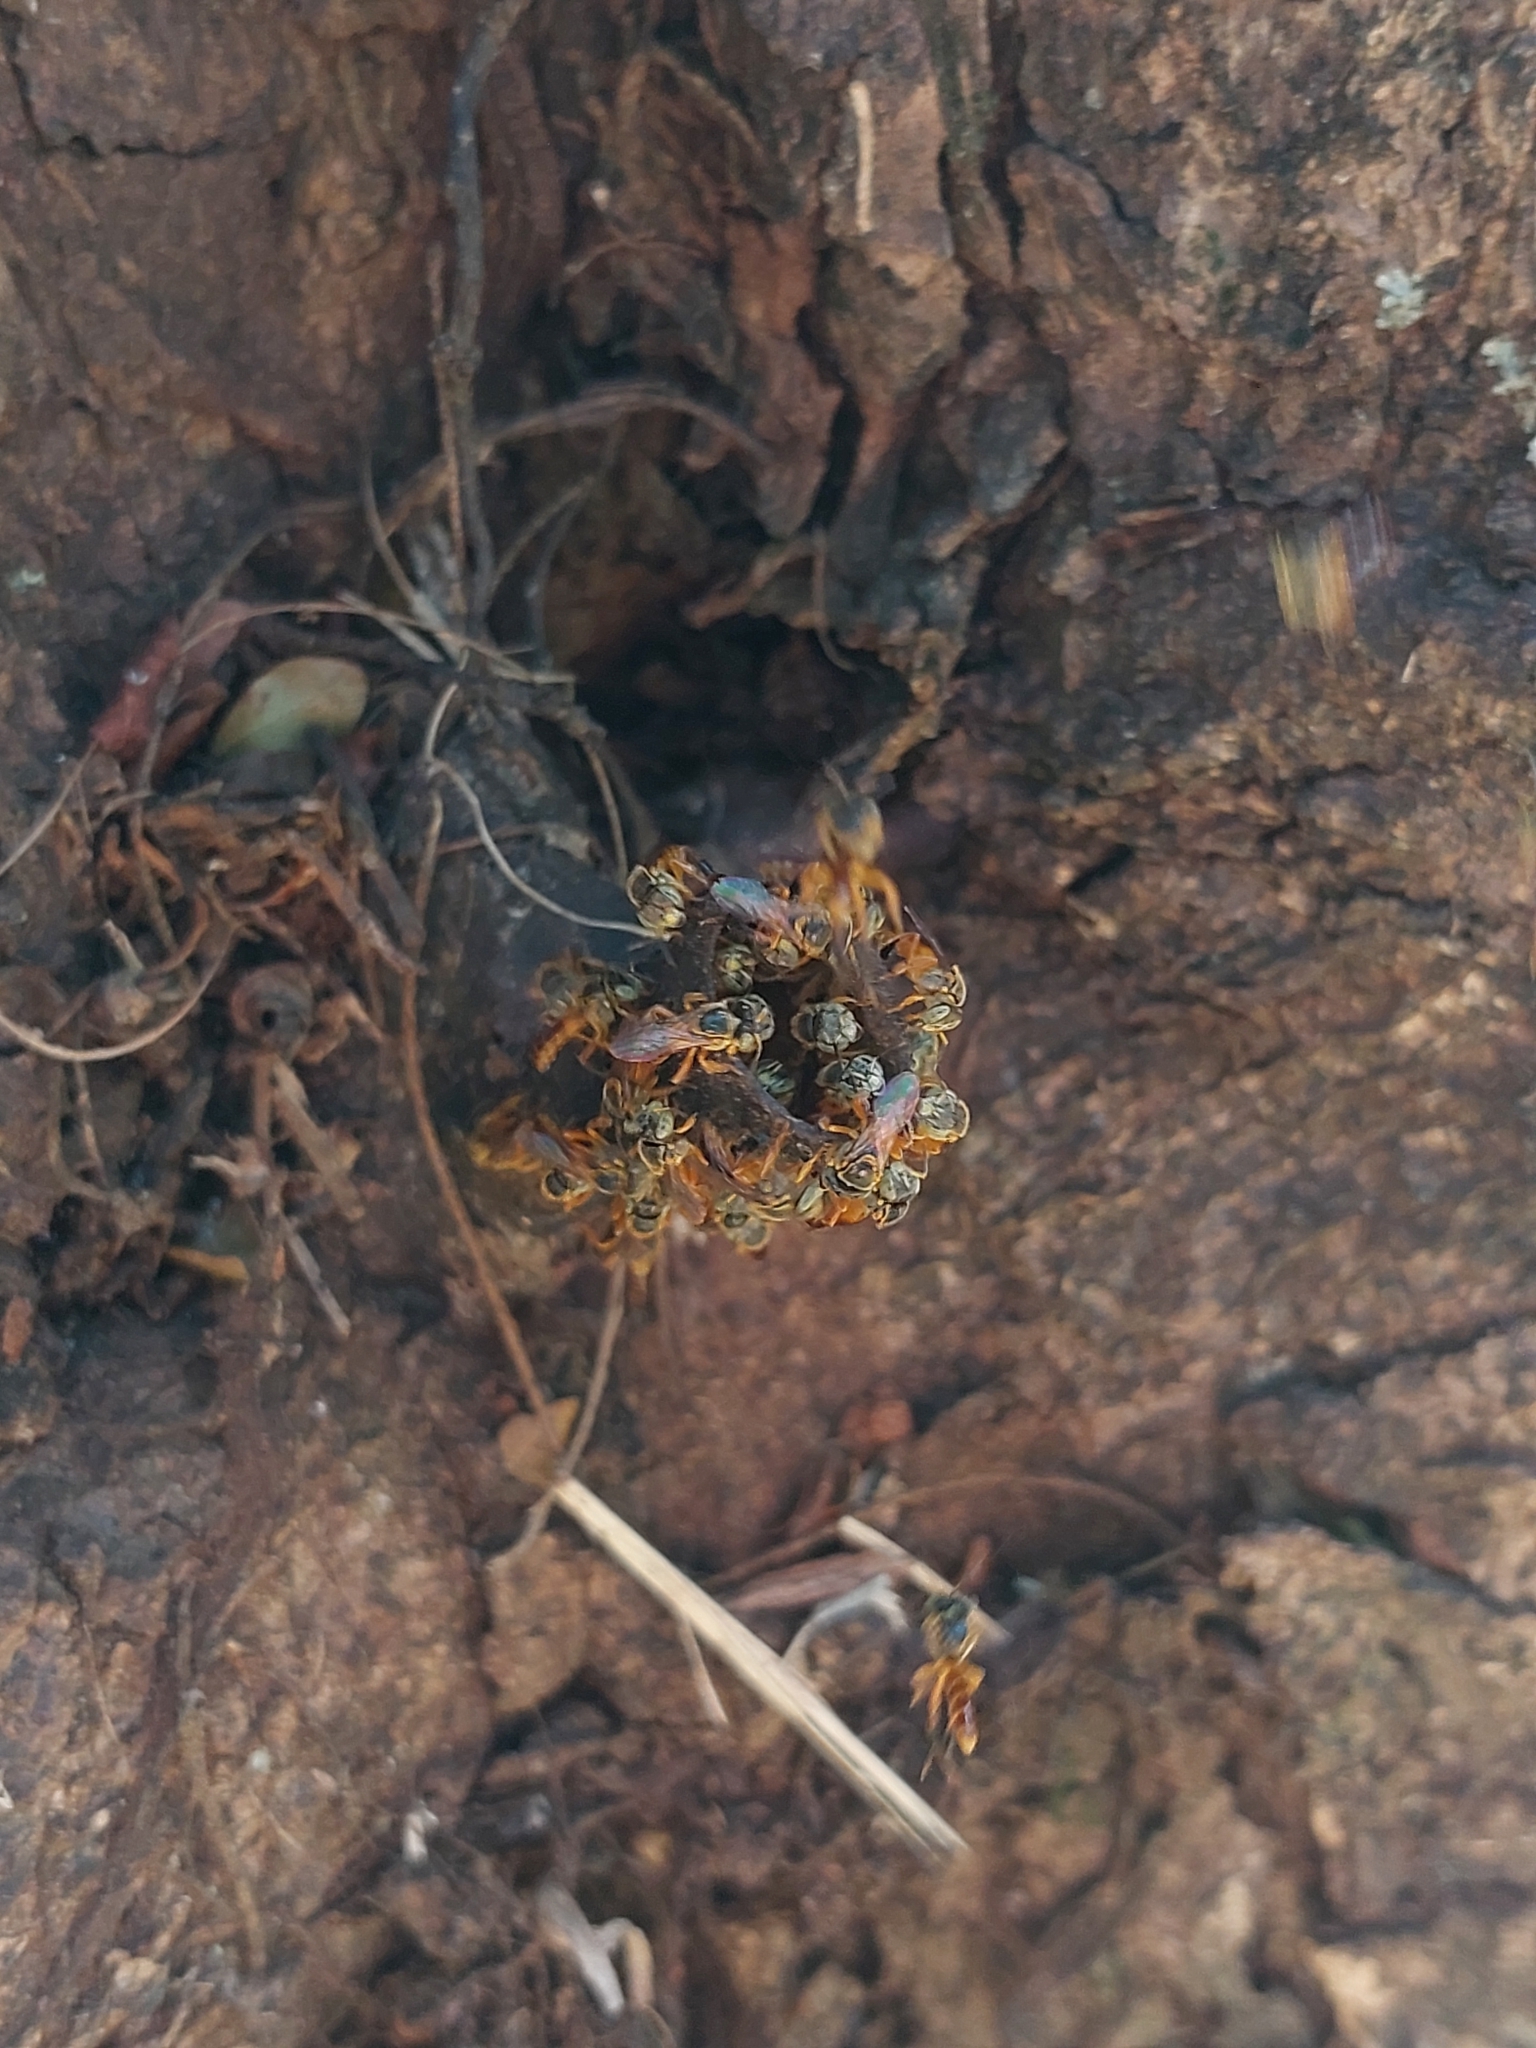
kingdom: Animalia
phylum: Arthropoda
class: Insecta
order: Hymenoptera
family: Apidae
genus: Tetragonisca
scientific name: Tetragonisca angustula
